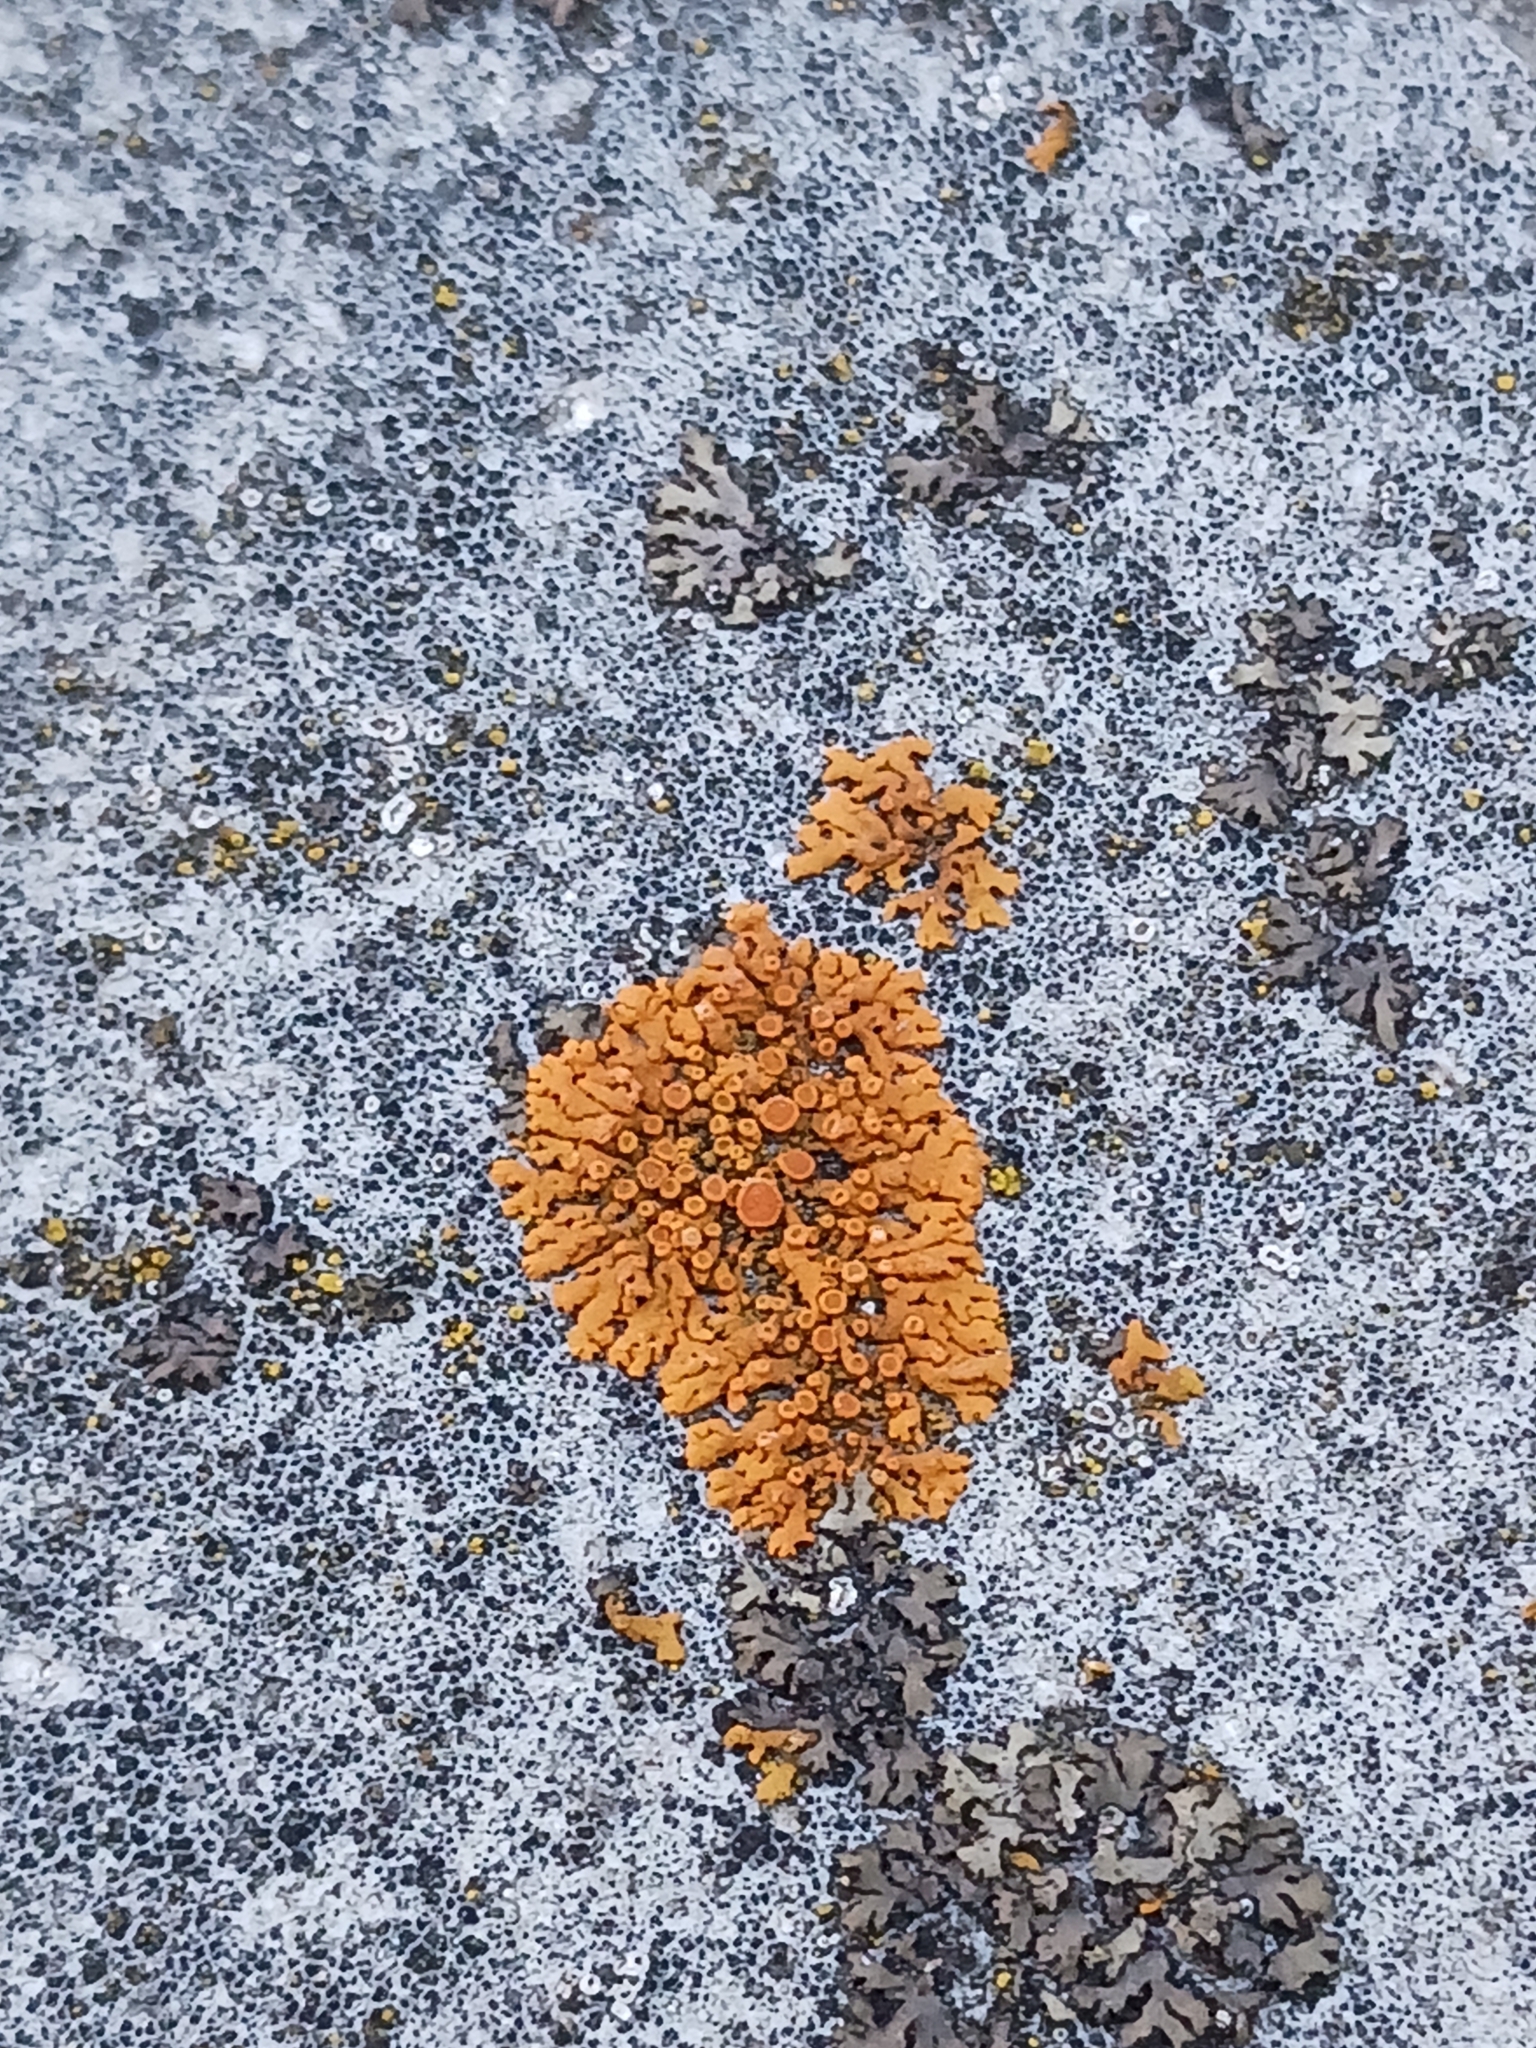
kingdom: Fungi
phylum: Ascomycota
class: Lecanoromycetes
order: Teloschistales
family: Teloschistaceae
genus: Xanthoria
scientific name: Xanthoria elegans
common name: Elegant sunburst lichen
